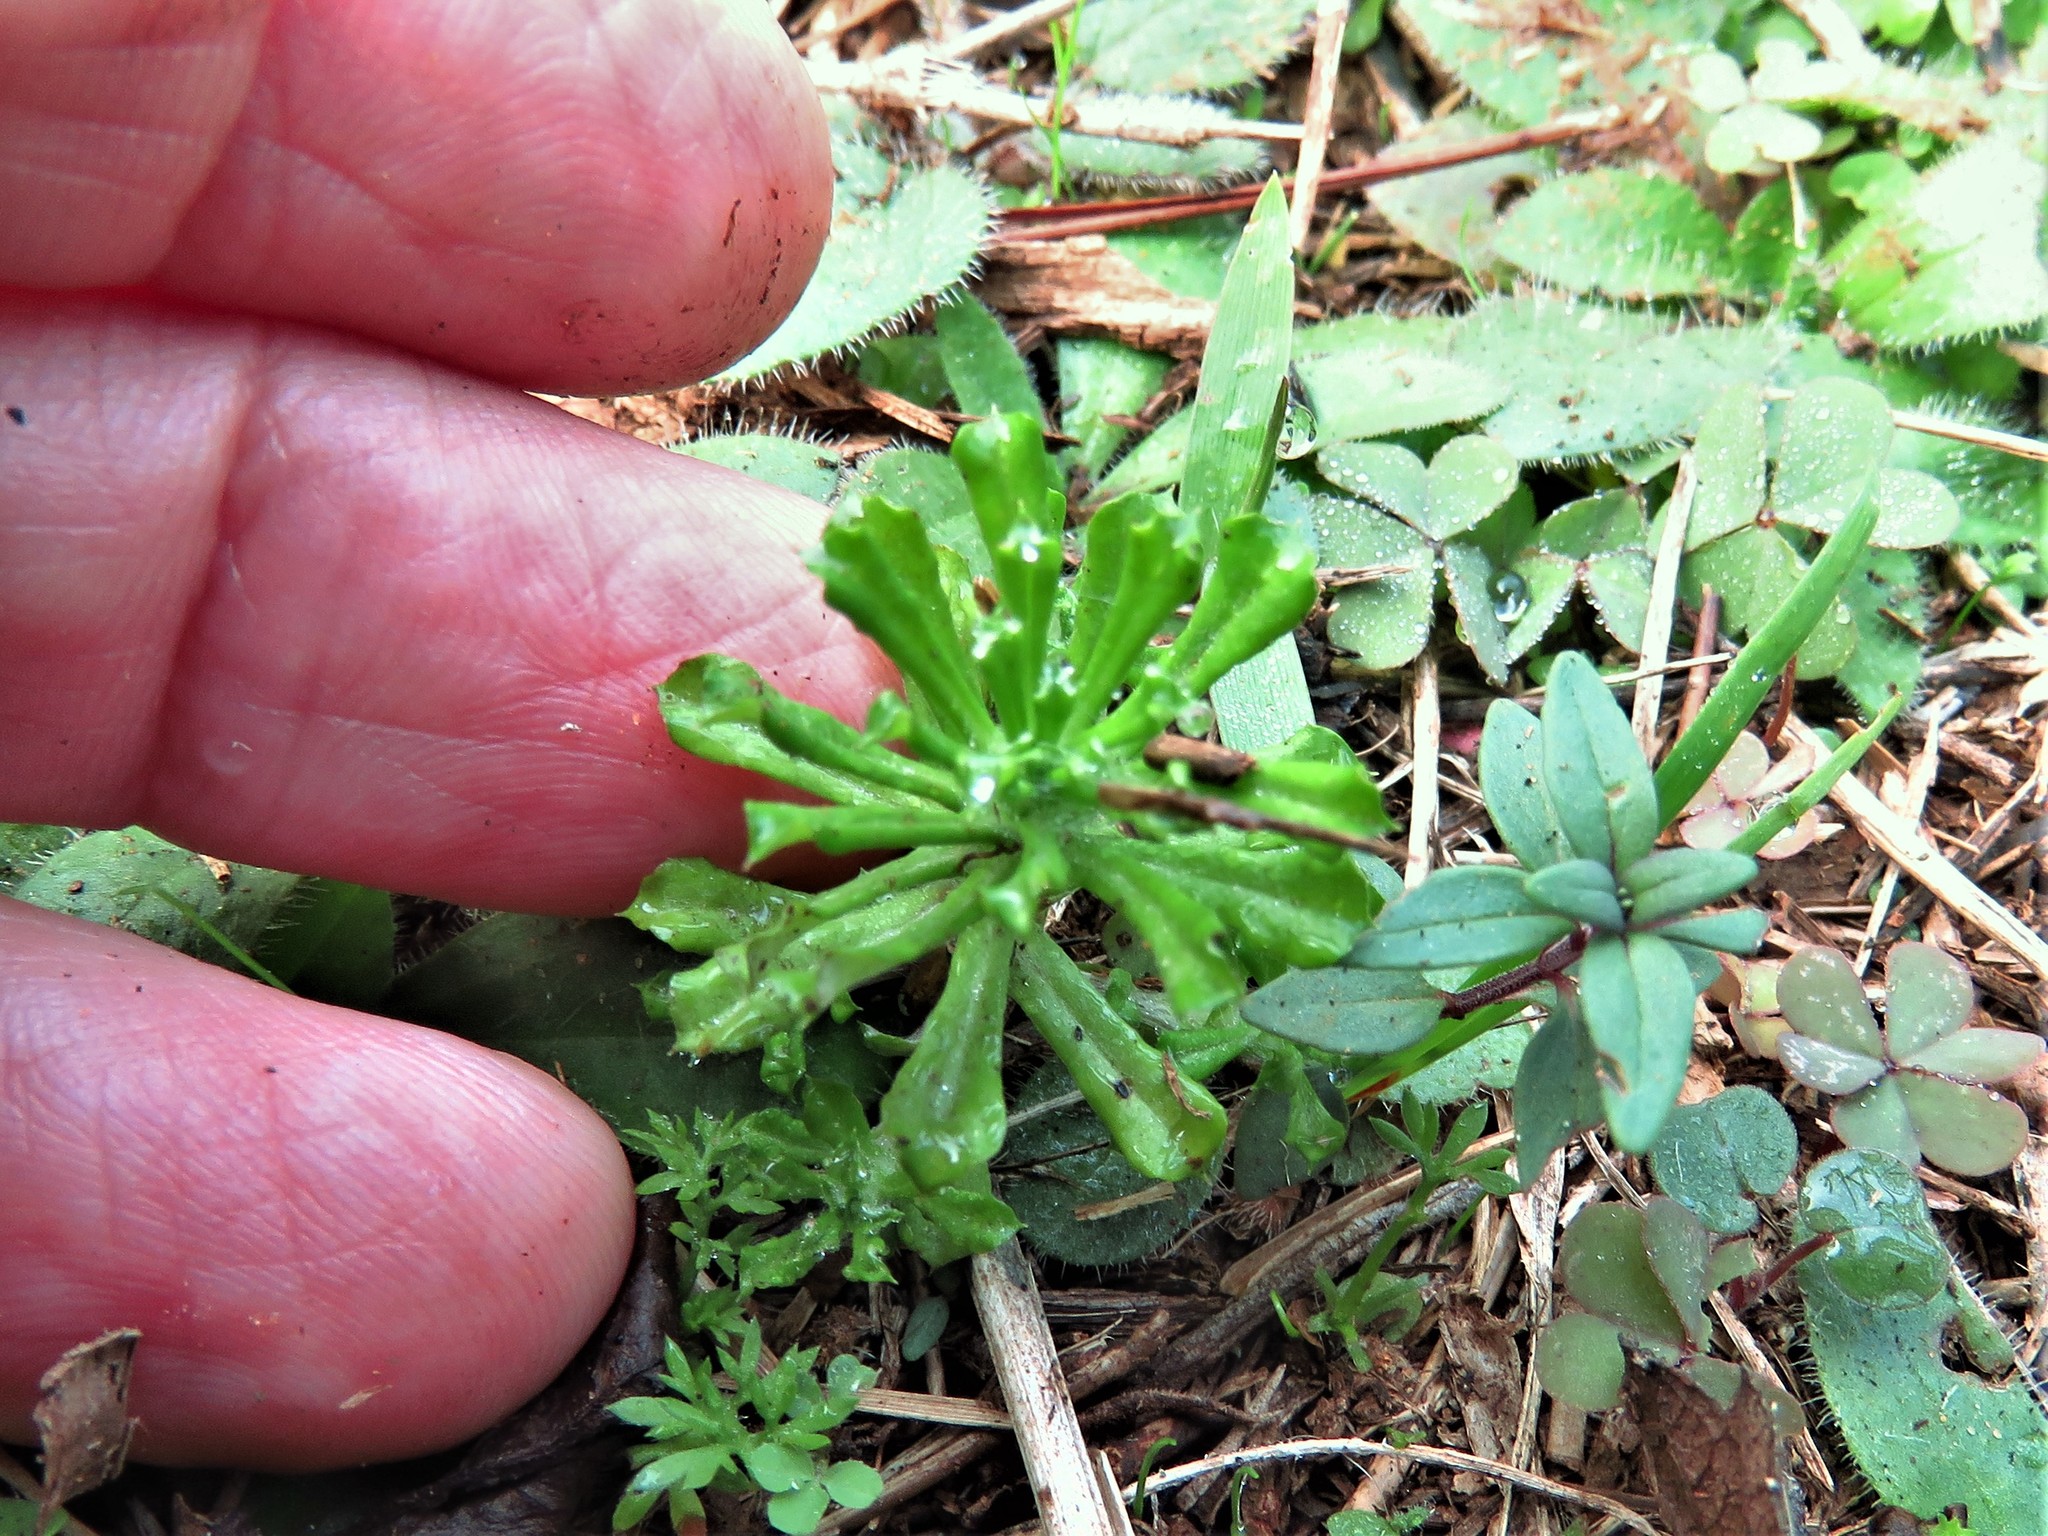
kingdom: Plantae
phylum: Tracheophyta
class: Magnoliopsida
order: Asterales
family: Asteraceae
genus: Facelis
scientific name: Facelis retusa
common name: Annual trampweed
